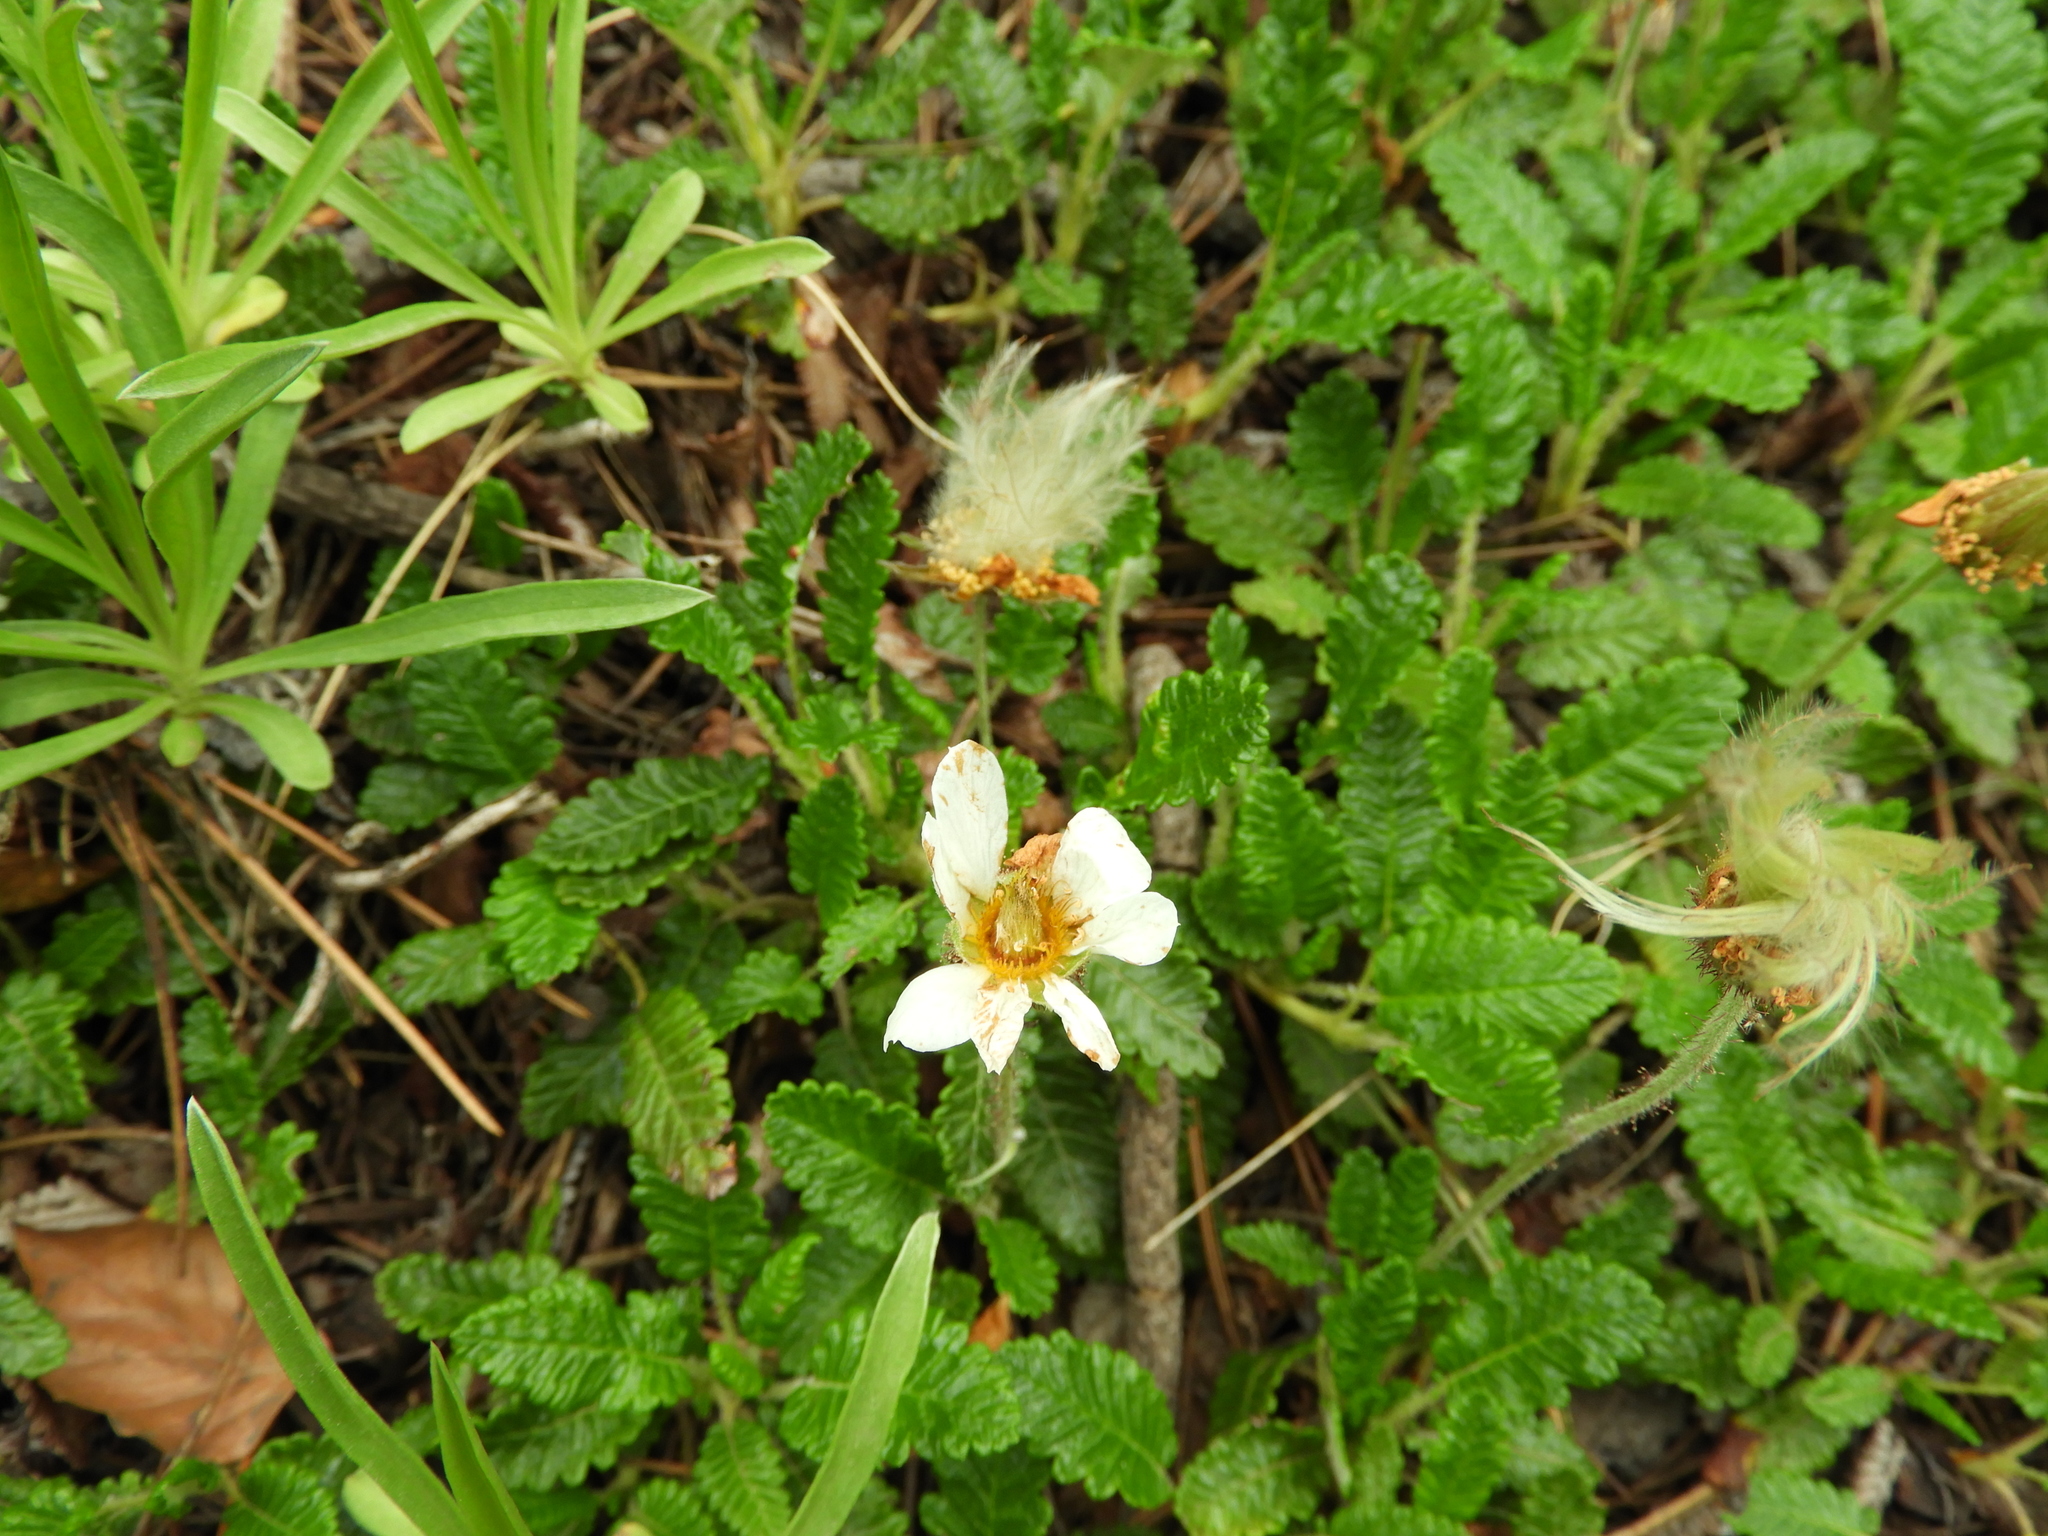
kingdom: Plantae
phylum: Tracheophyta
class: Magnoliopsida
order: Rosales
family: Rosaceae
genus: Dryas
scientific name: Dryas octopetala
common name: Eight-petal mountain-avens
